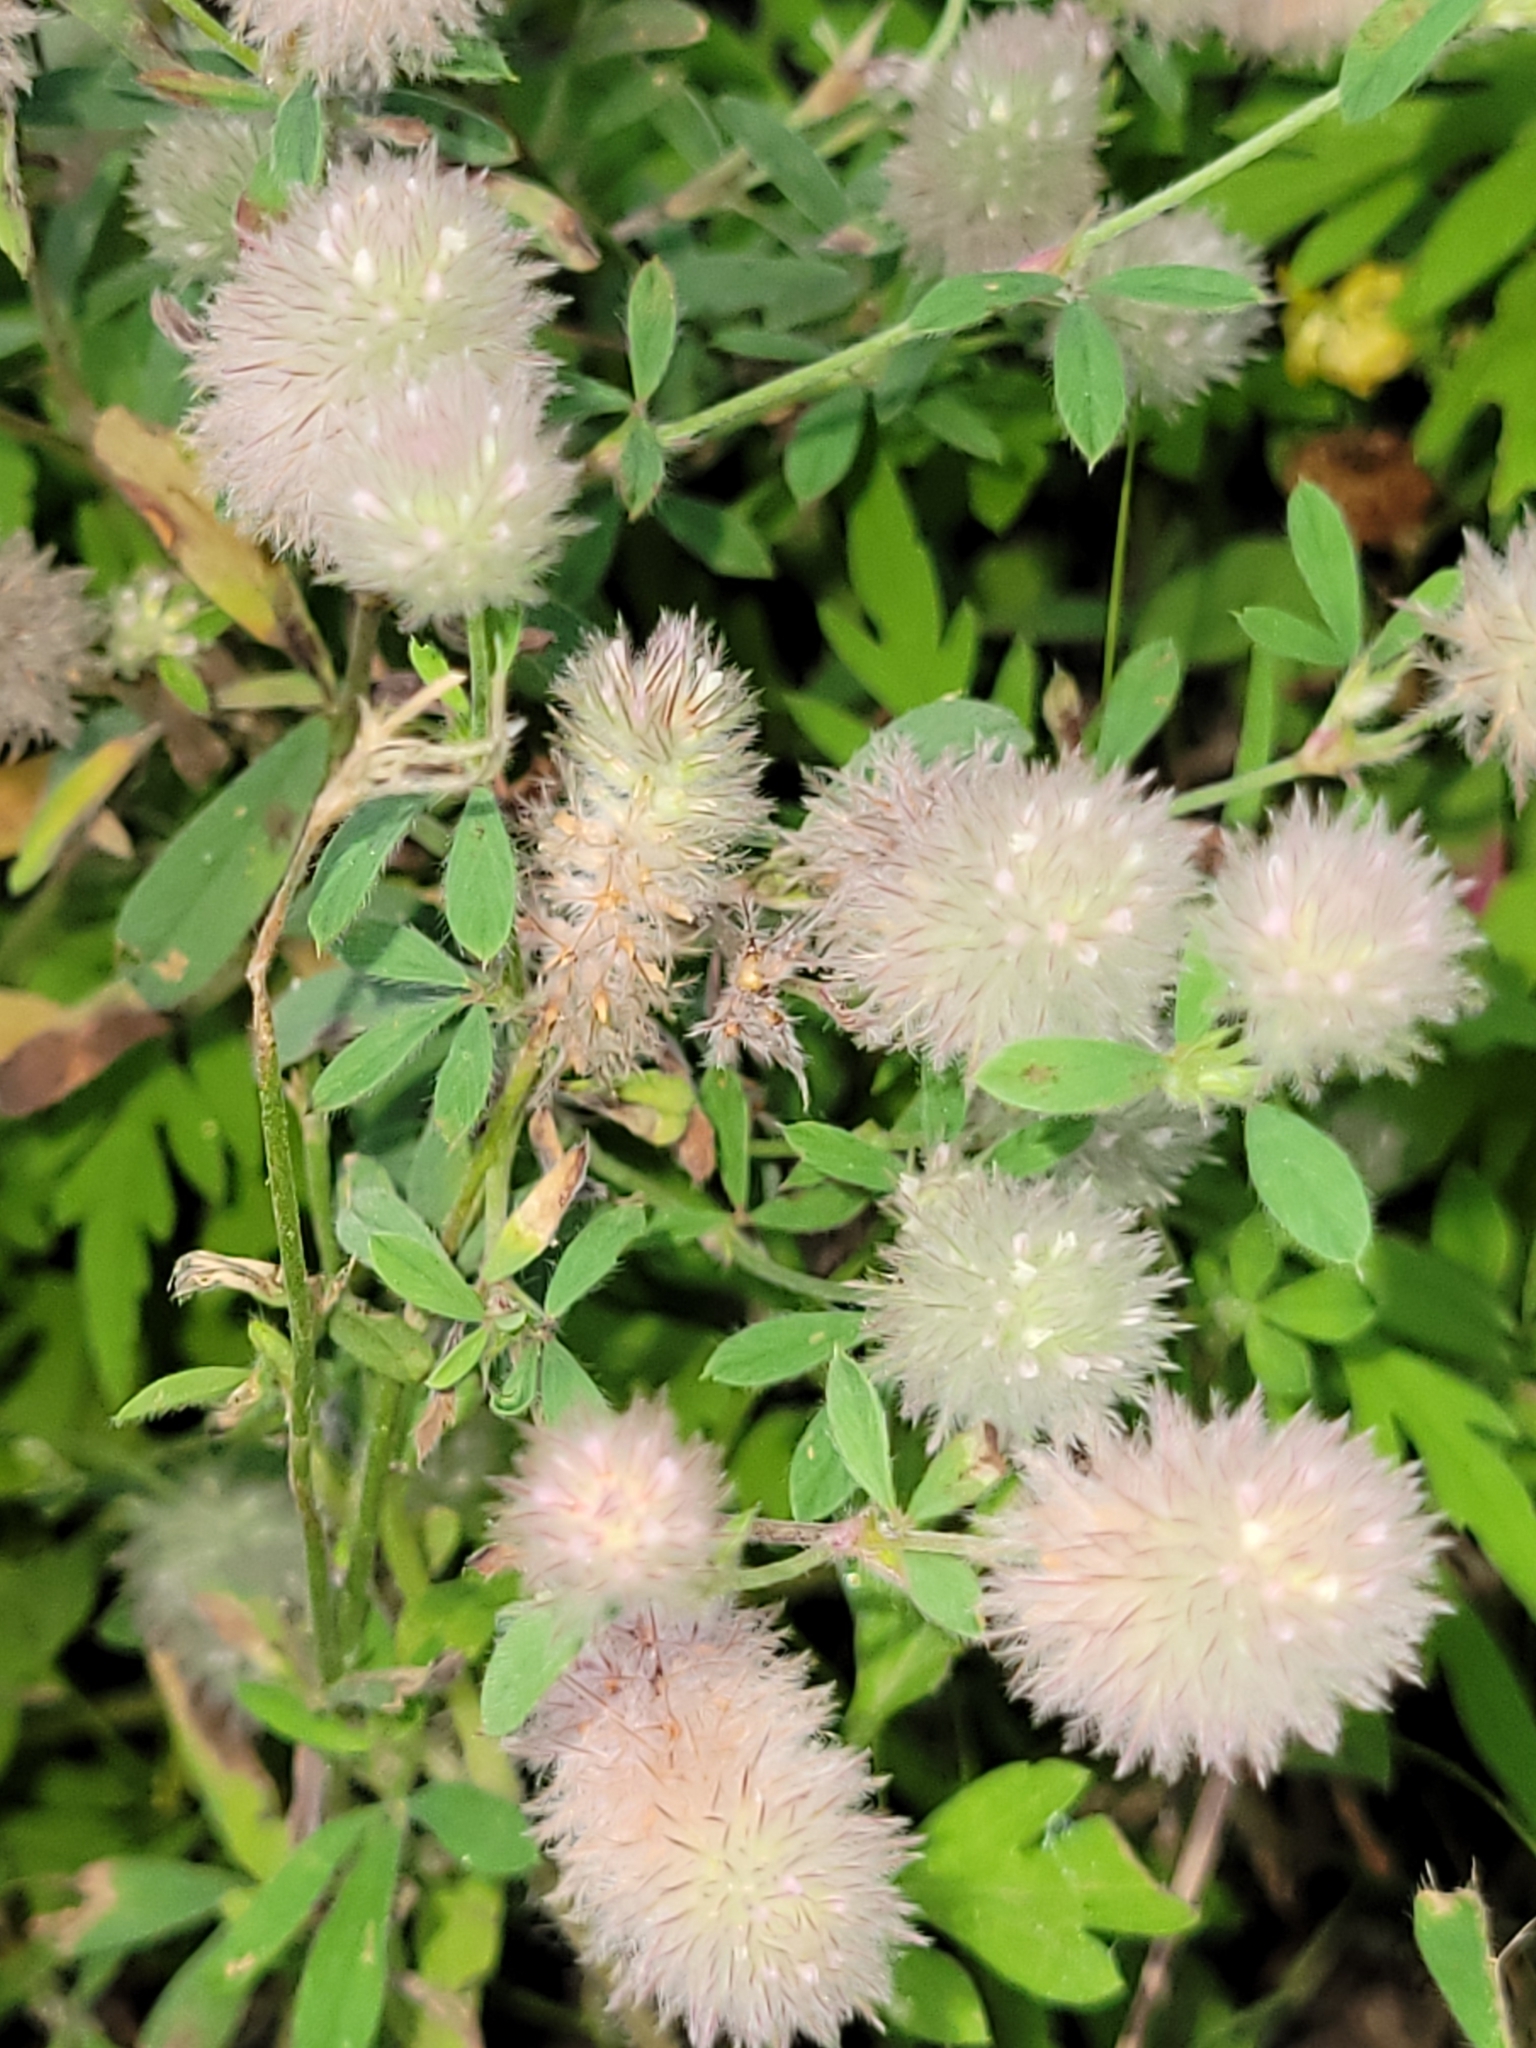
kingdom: Plantae
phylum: Tracheophyta
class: Magnoliopsida
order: Fabales
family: Fabaceae
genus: Trifolium
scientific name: Trifolium arvense
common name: Hare's-foot clover
